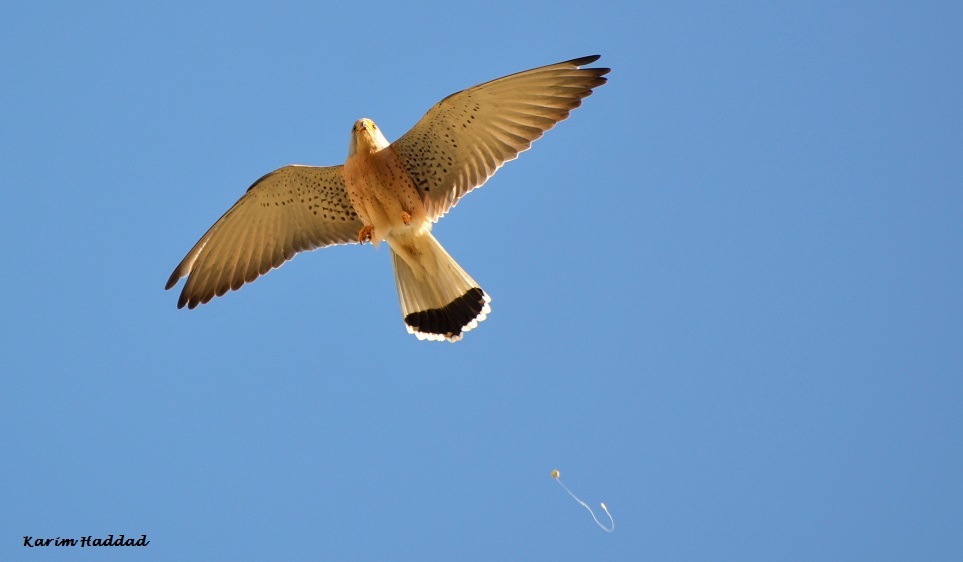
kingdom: Animalia
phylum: Chordata
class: Aves
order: Falconiformes
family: Falconidae
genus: Falco
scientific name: Falco naumanni
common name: Lesser kestrel
